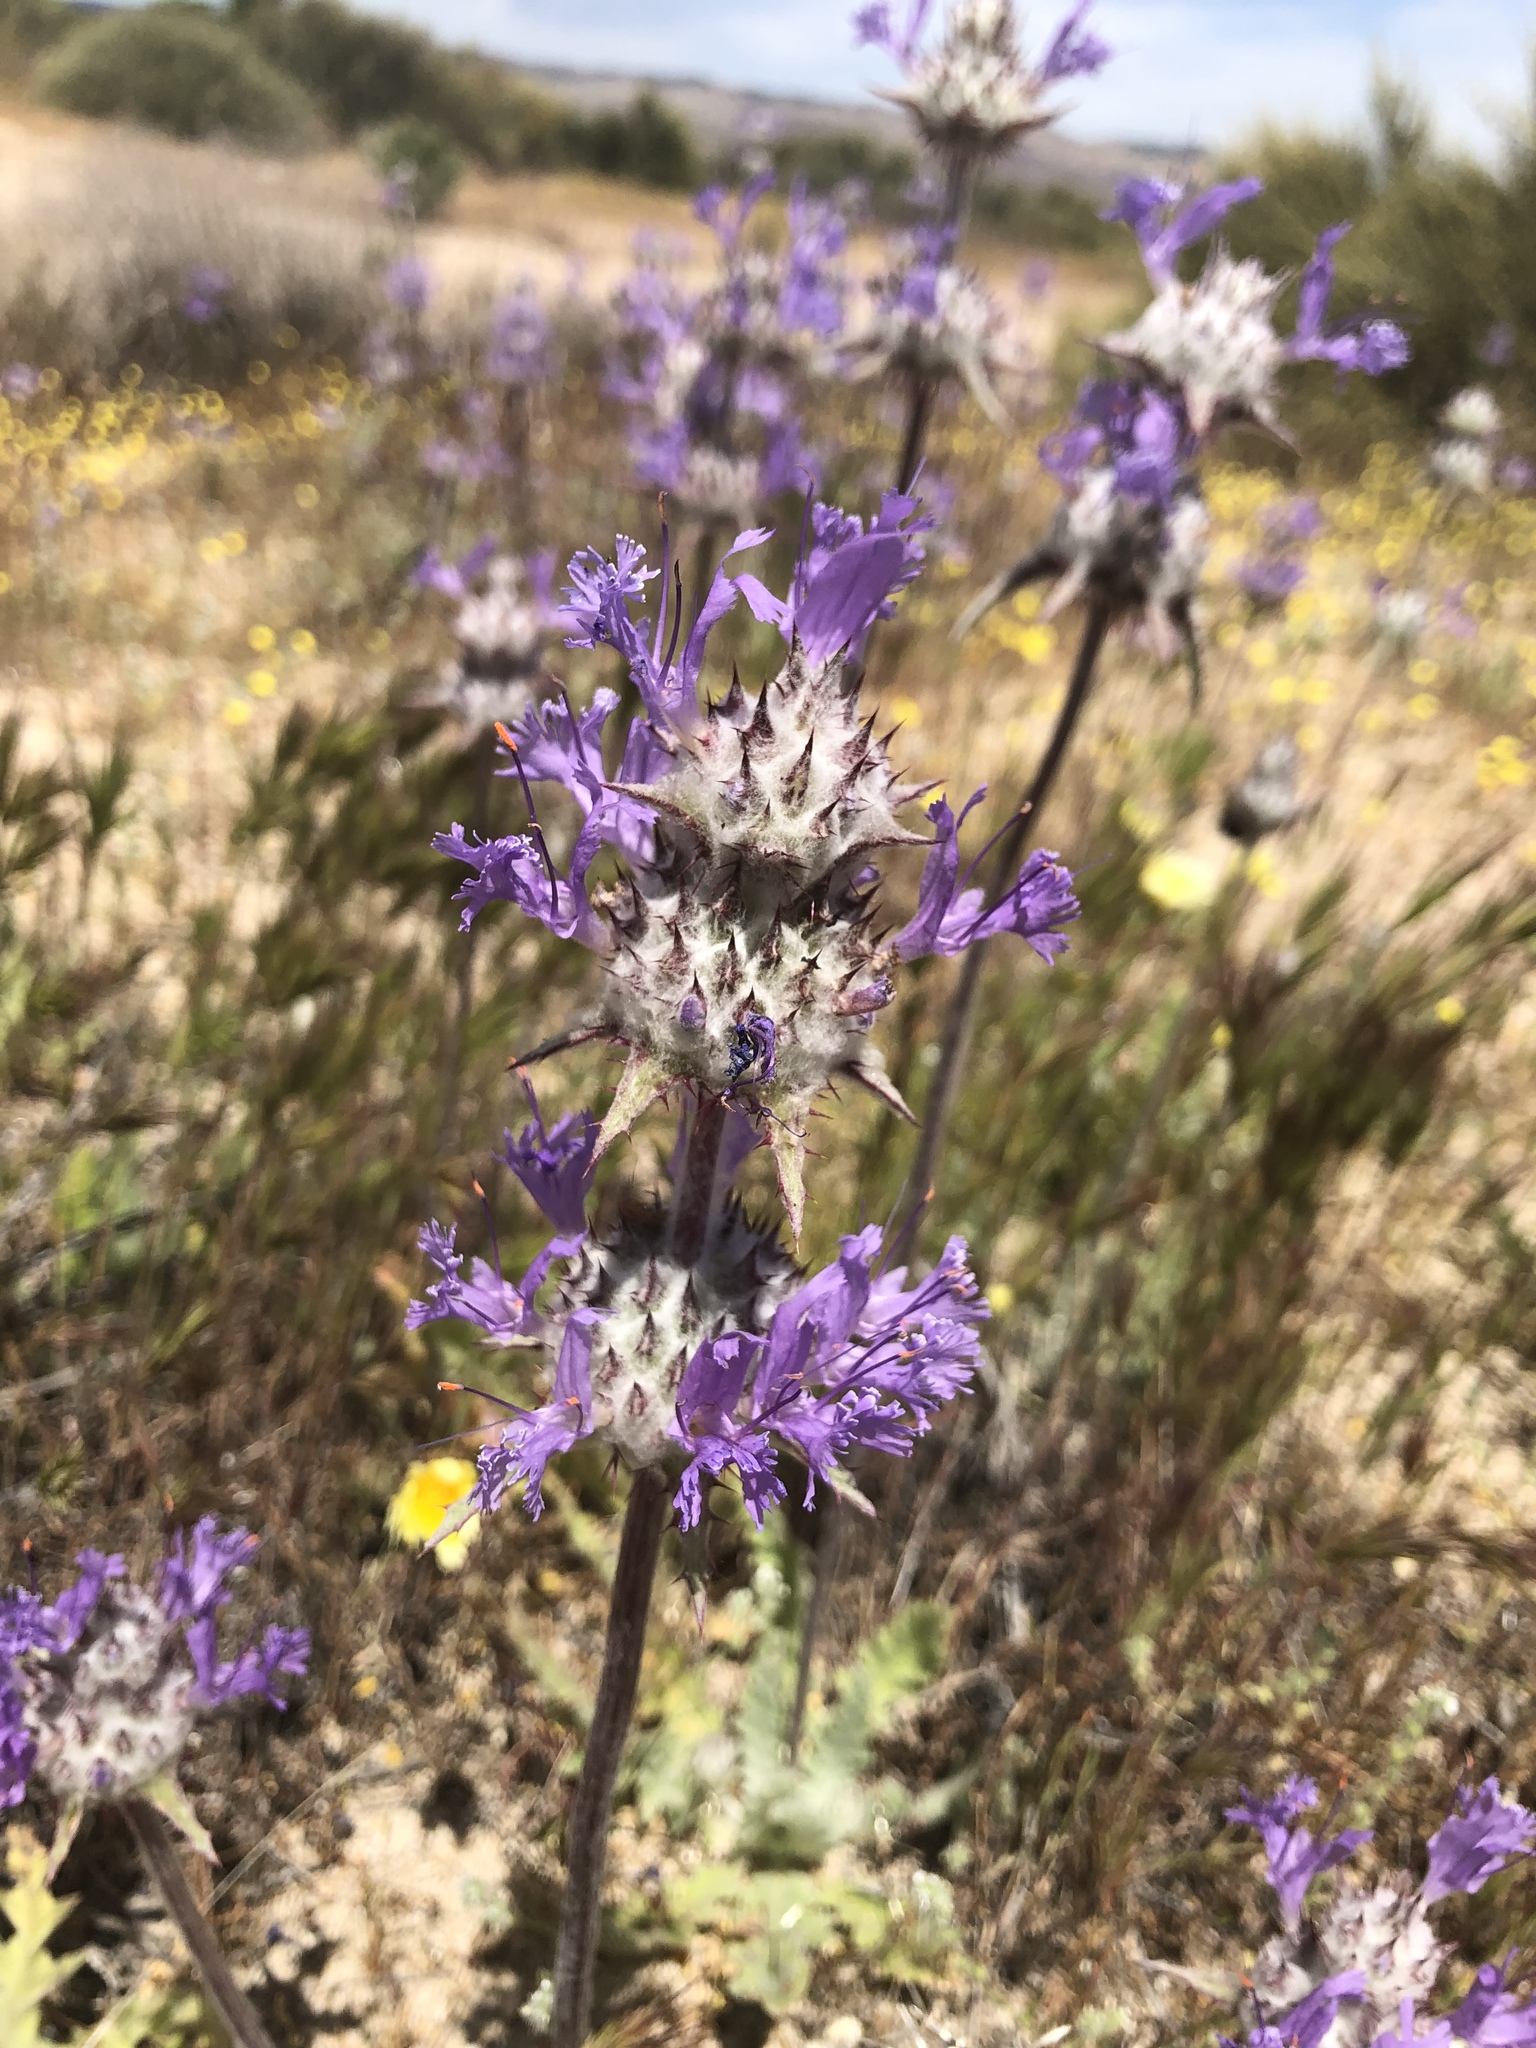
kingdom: Plantae
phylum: Tracheophyta
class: Magnoliopsida
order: Lamiales
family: Lamiaceae
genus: Salvia
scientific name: Salvia carduacea
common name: Thistle sage
